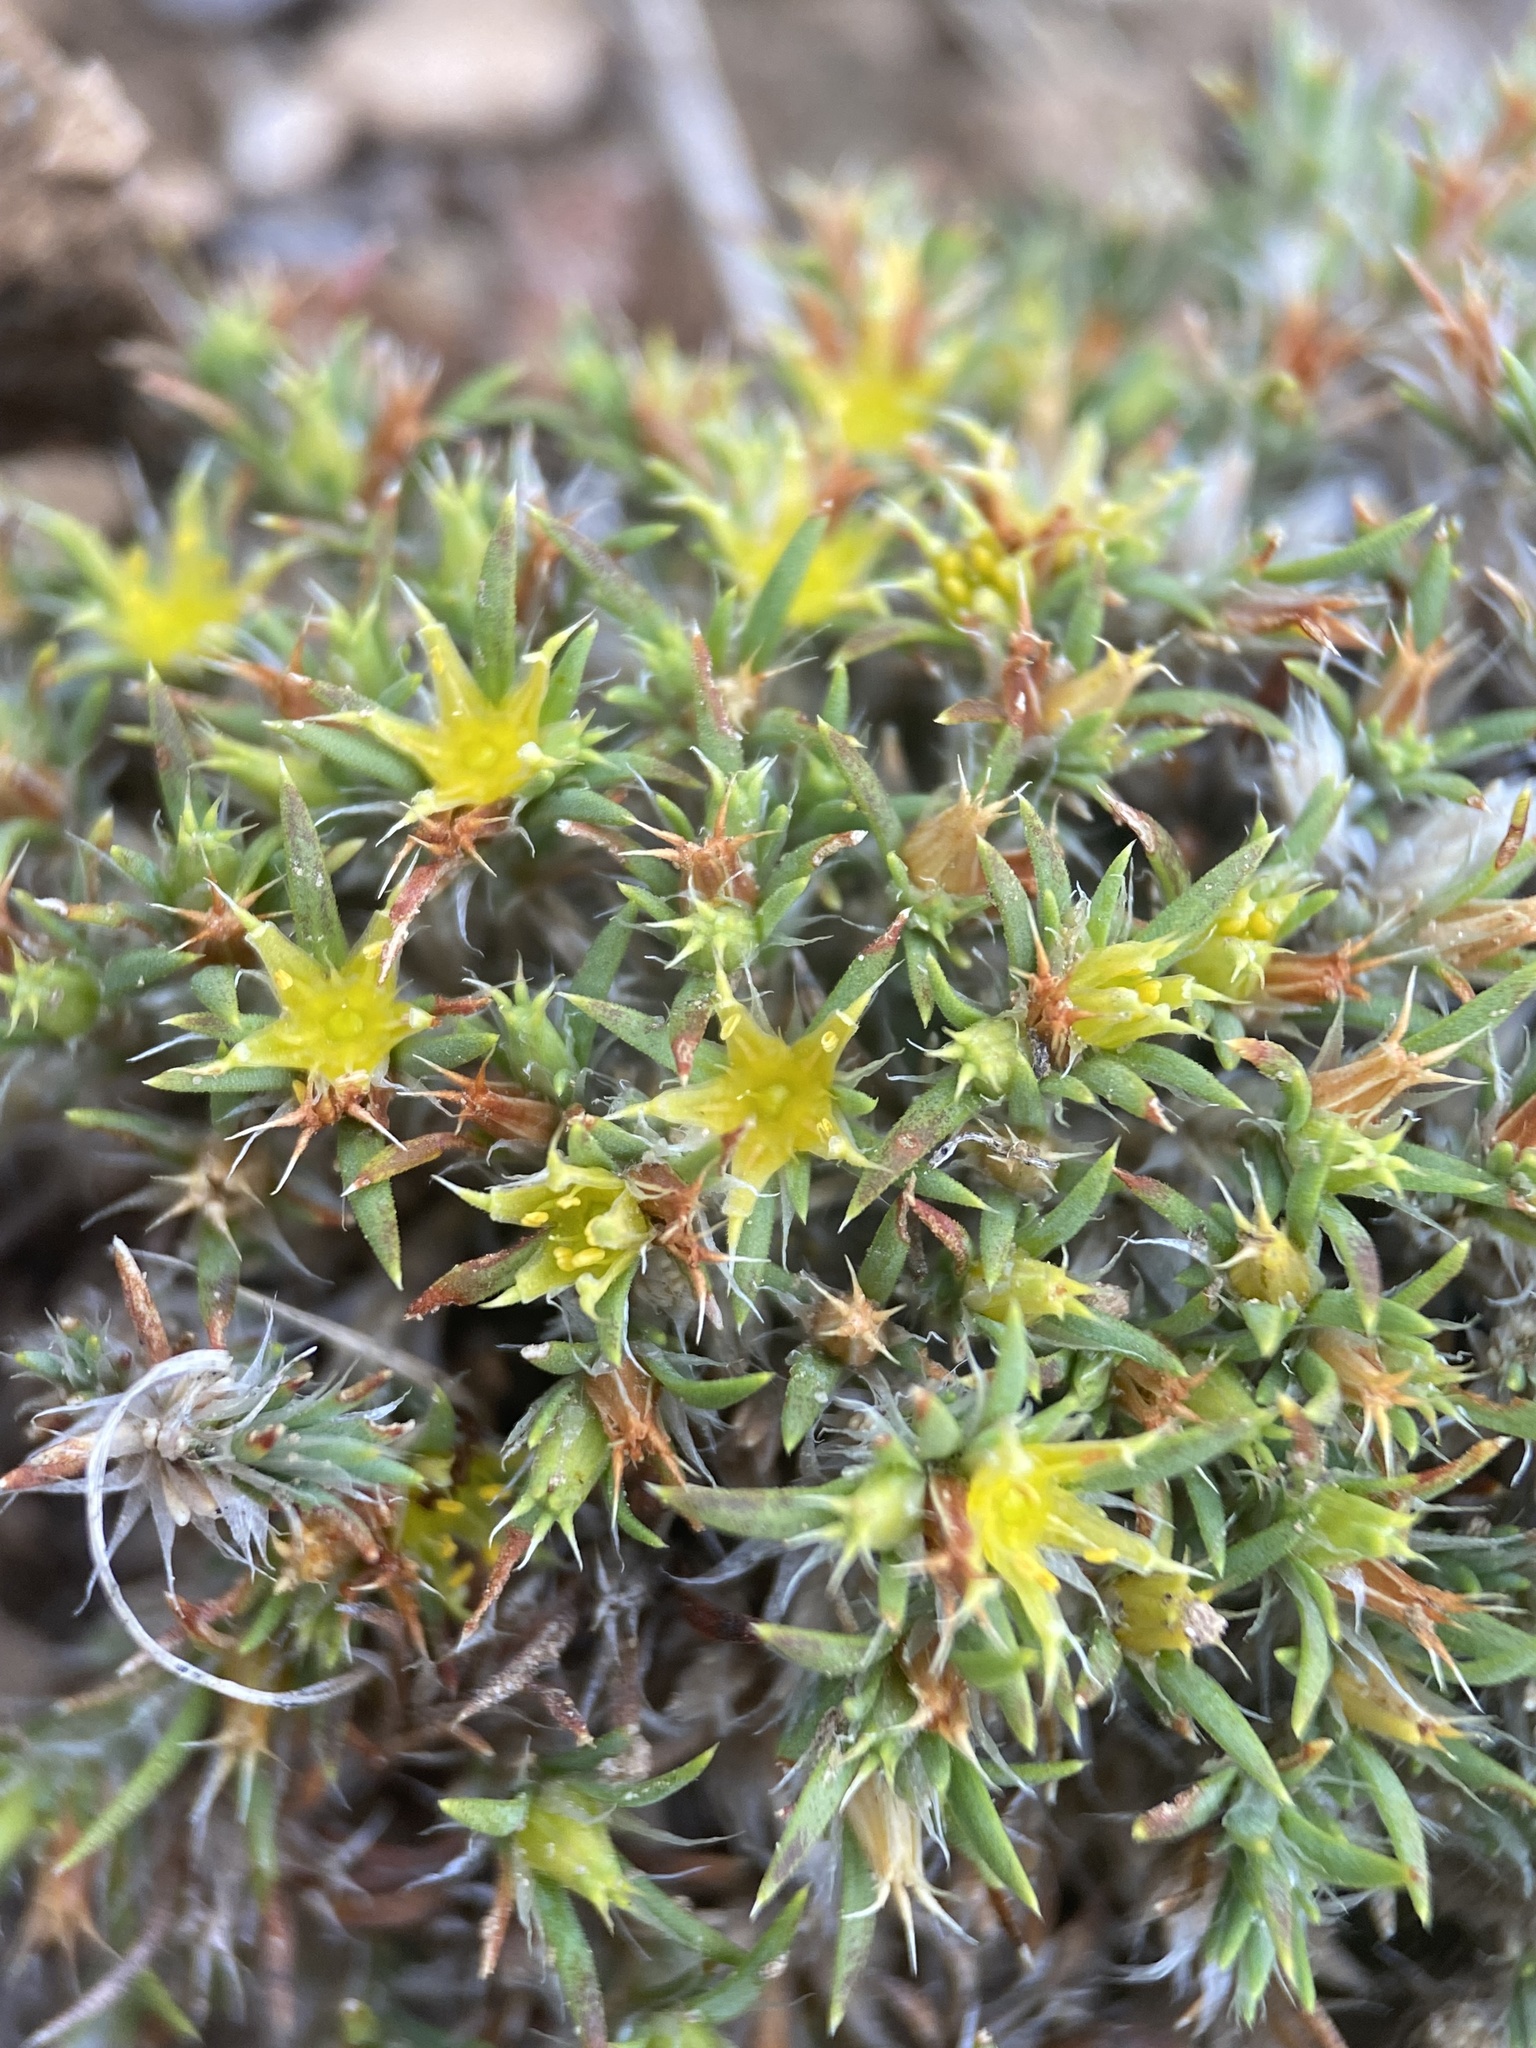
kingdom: Plantae
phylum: Tracheophyta
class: Magnoliopsida
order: Caryophyllales
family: Caryophyllaceae
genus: Paronychia
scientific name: Paronychia sessiliflora
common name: Creeping nailwort
